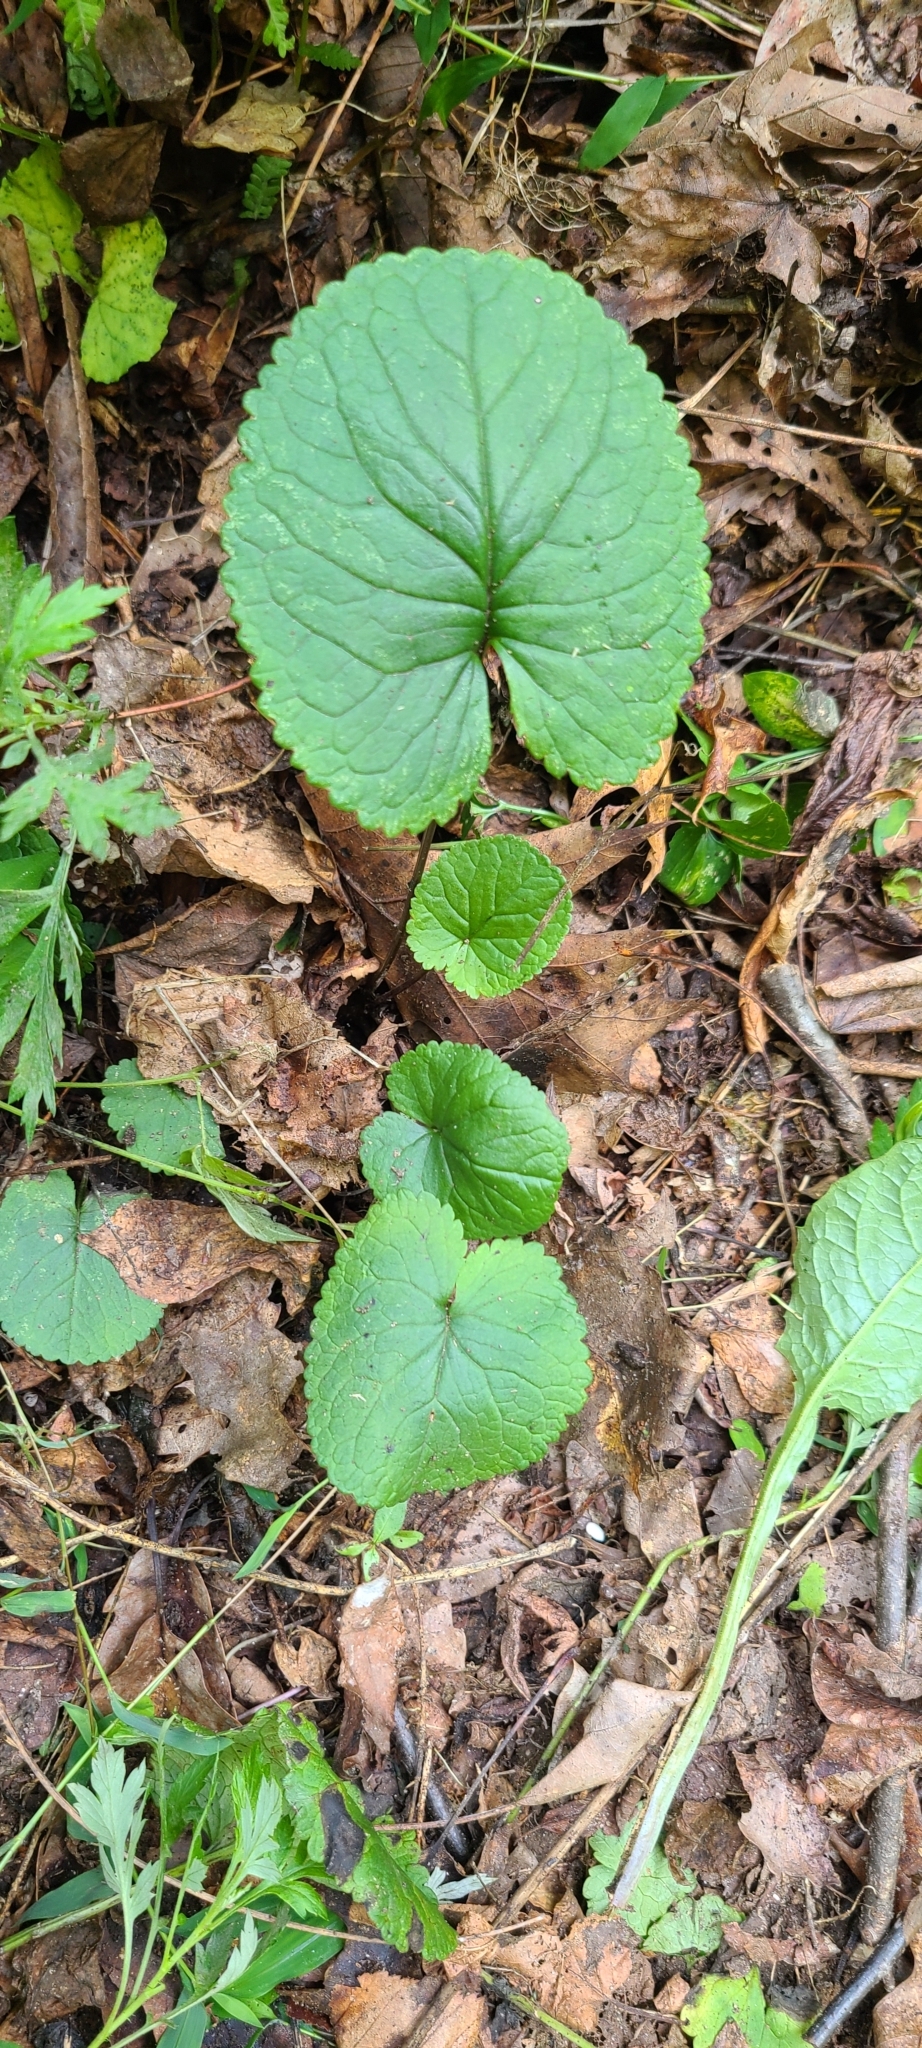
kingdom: Plantae
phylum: Tracheophyta
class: Magnoliopsida
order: Asterales
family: Asteraceae
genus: Packera
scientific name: Packera aurea
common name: Golden groundsel
